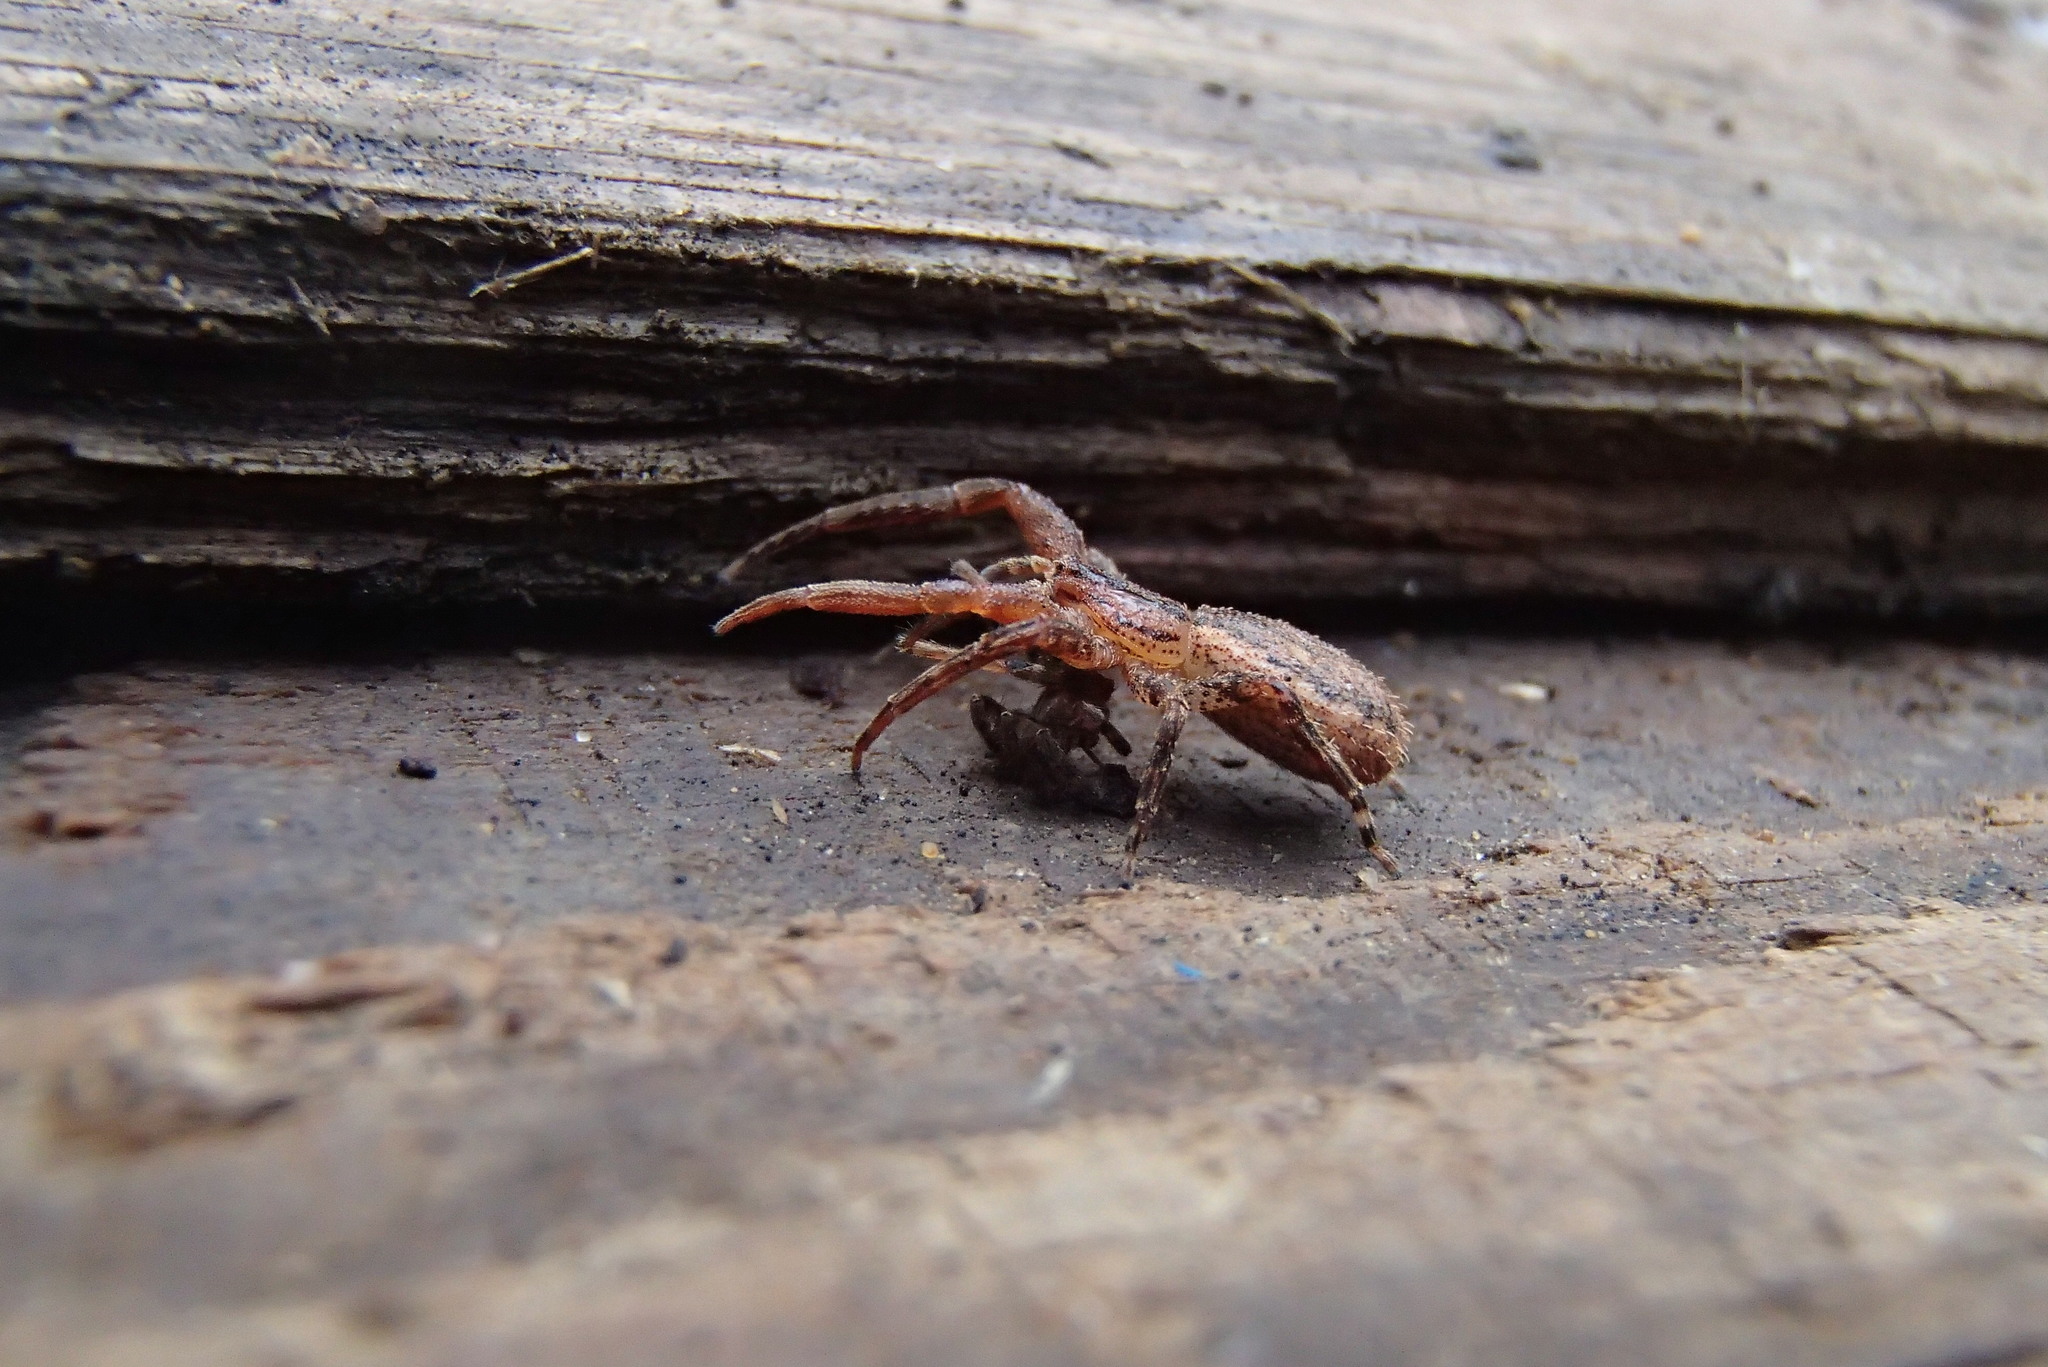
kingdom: Animalia
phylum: Arthropoda
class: Arachnida
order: Araneae
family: Thomisidae
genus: Isala
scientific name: Isala similis
